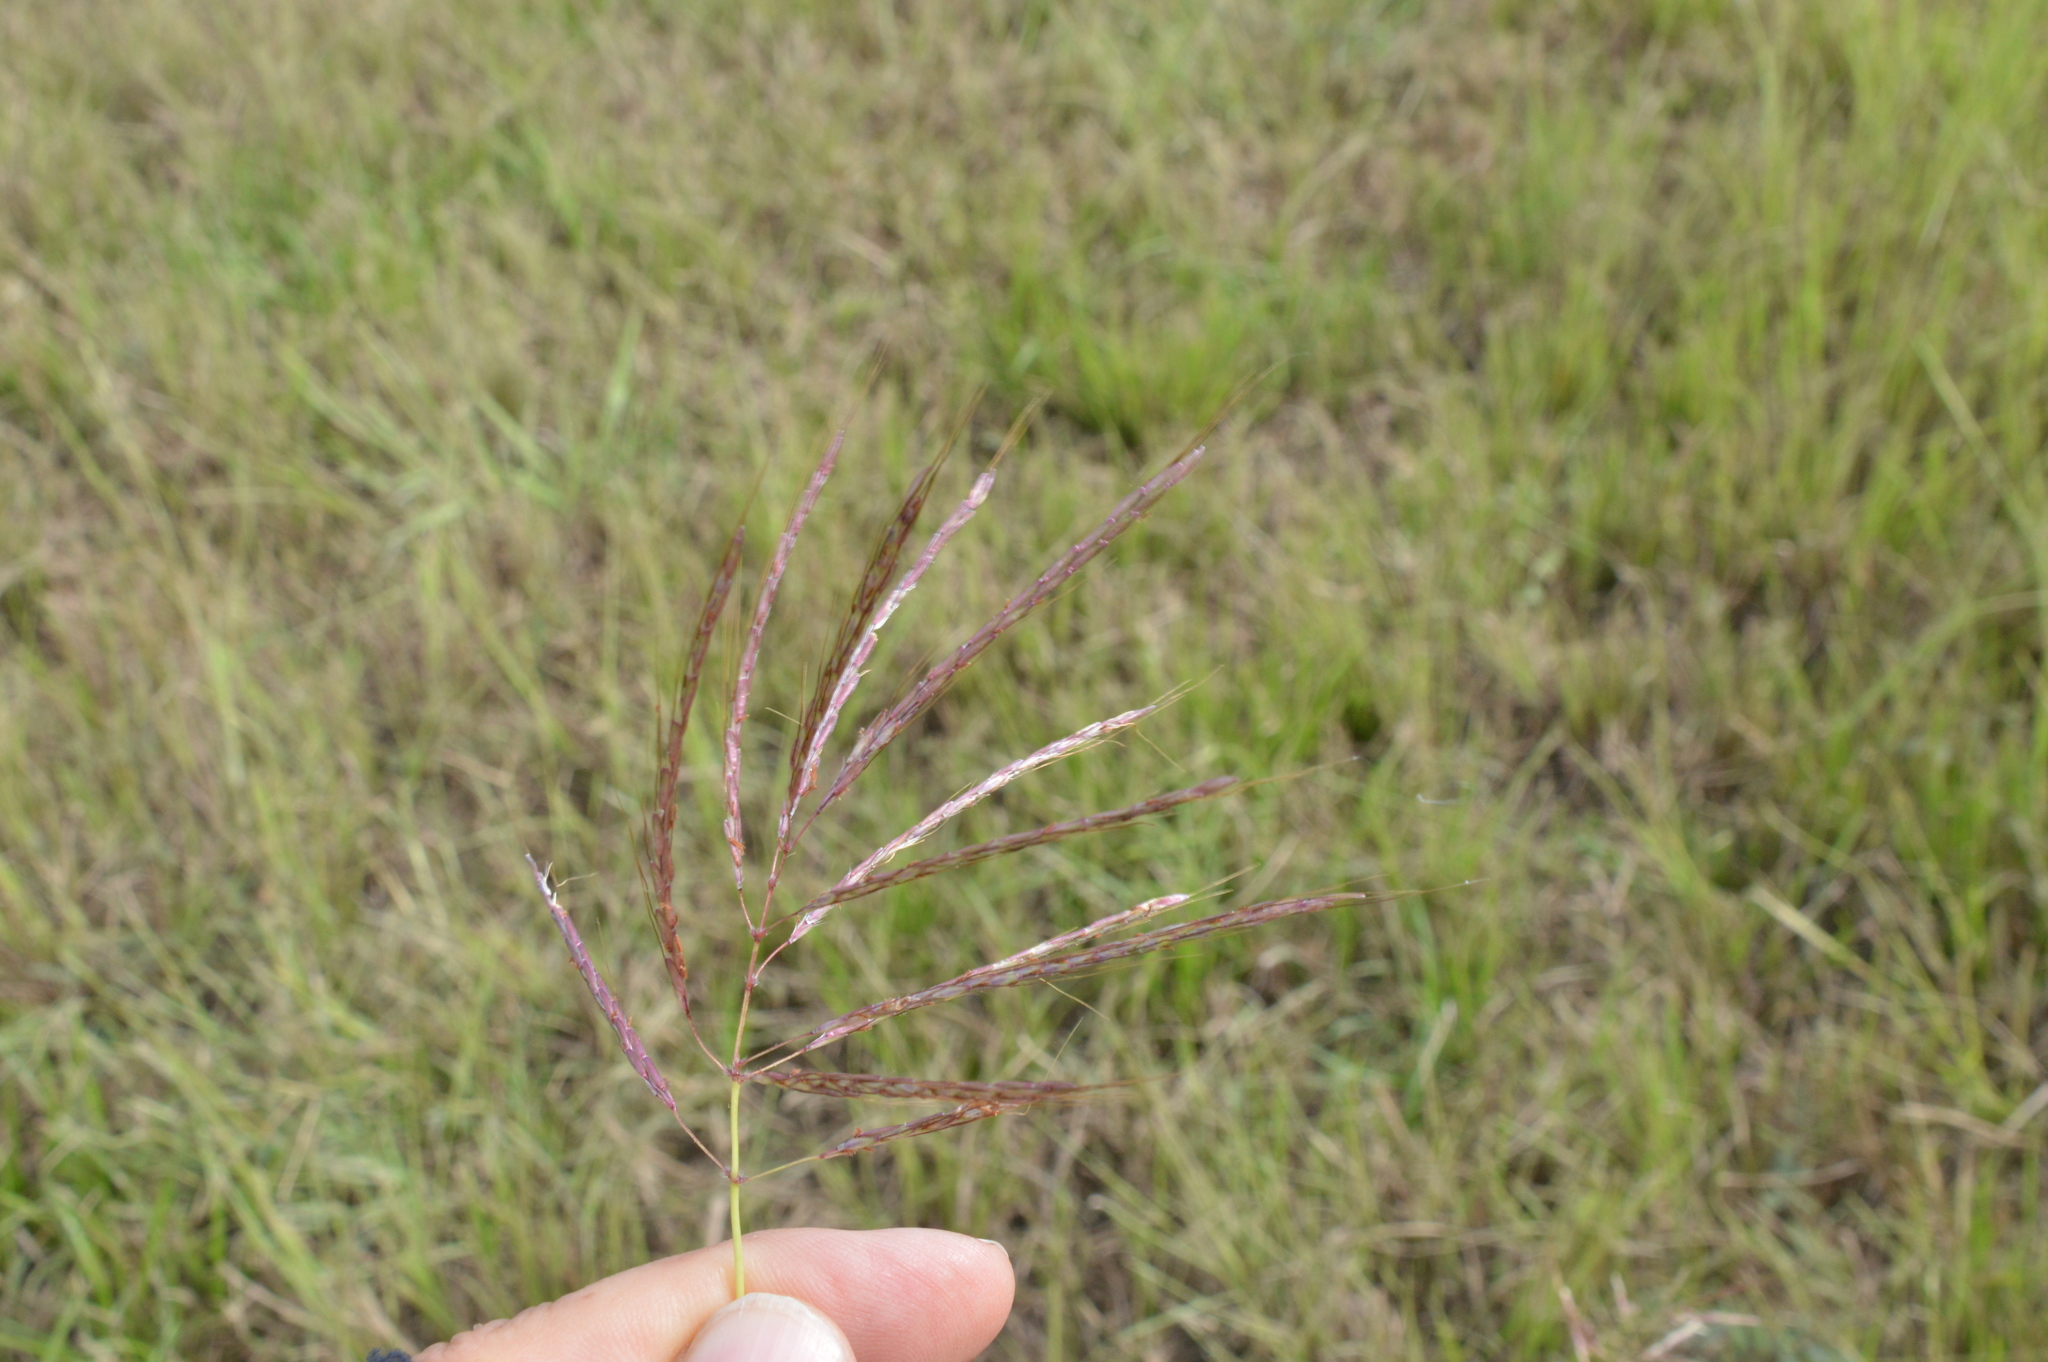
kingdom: Plantae
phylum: Tracheophyta
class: Liliopsida
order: Poales
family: Poaceae
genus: Bothriochloa
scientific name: Bothriochloa bladhii
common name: Caucasian bluestem
